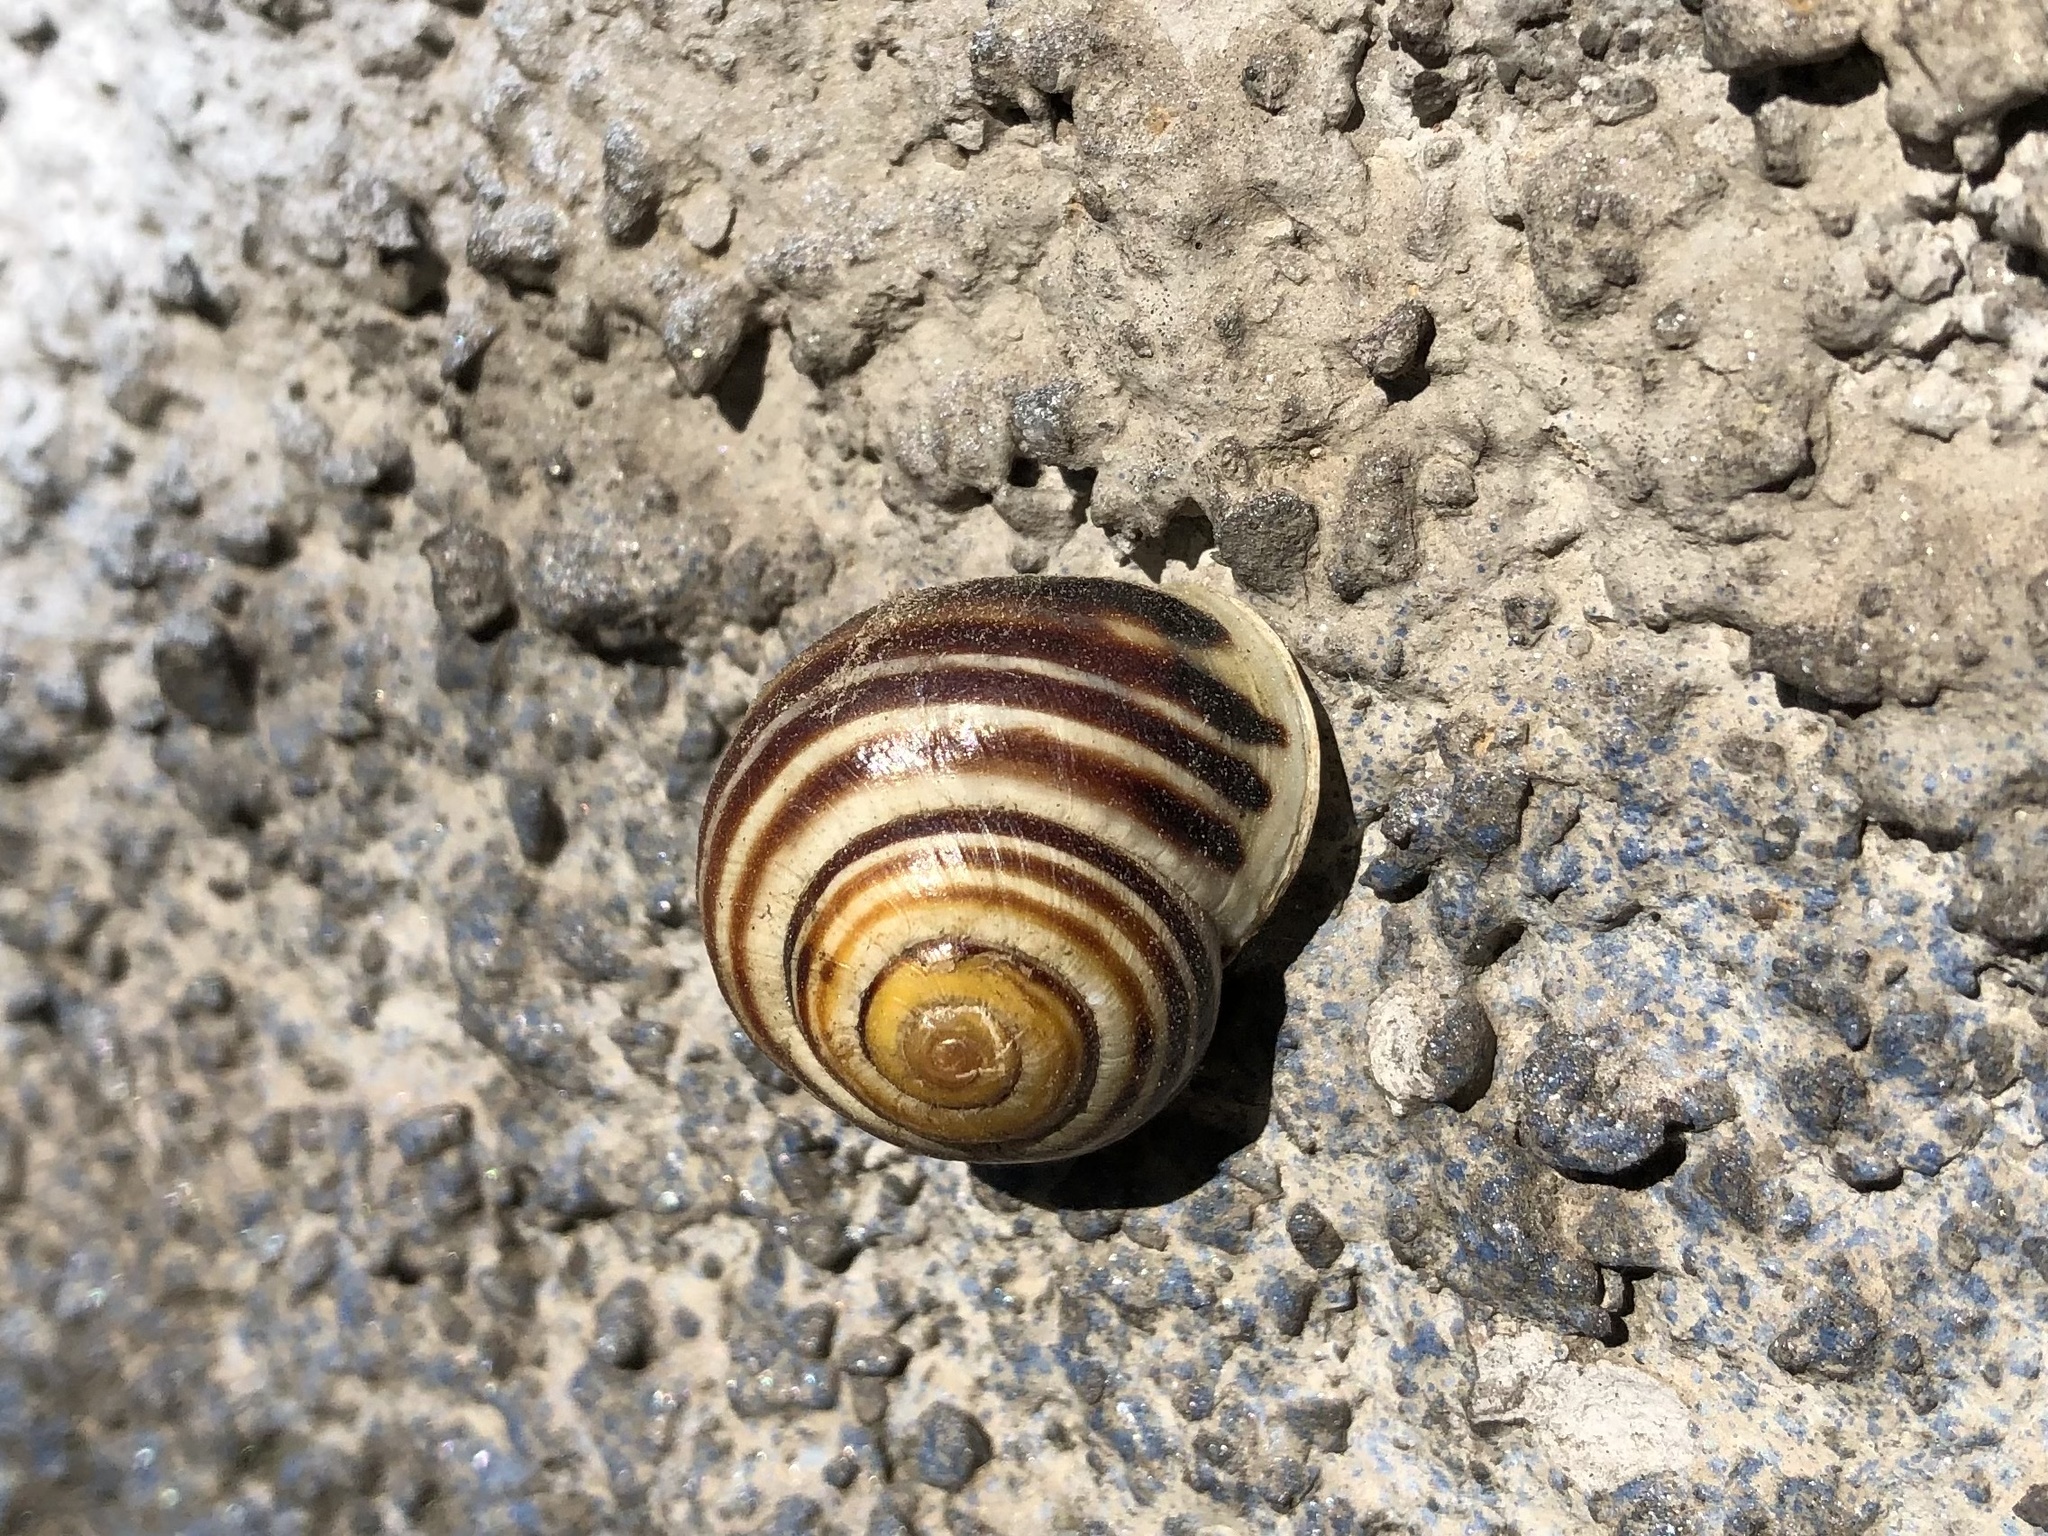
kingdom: Animalia
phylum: Mollusca
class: Gastropoda
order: Stylommatophora
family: Helicidae
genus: Cepaea
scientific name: Cepaea hortensis
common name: White-lip gardensnail
